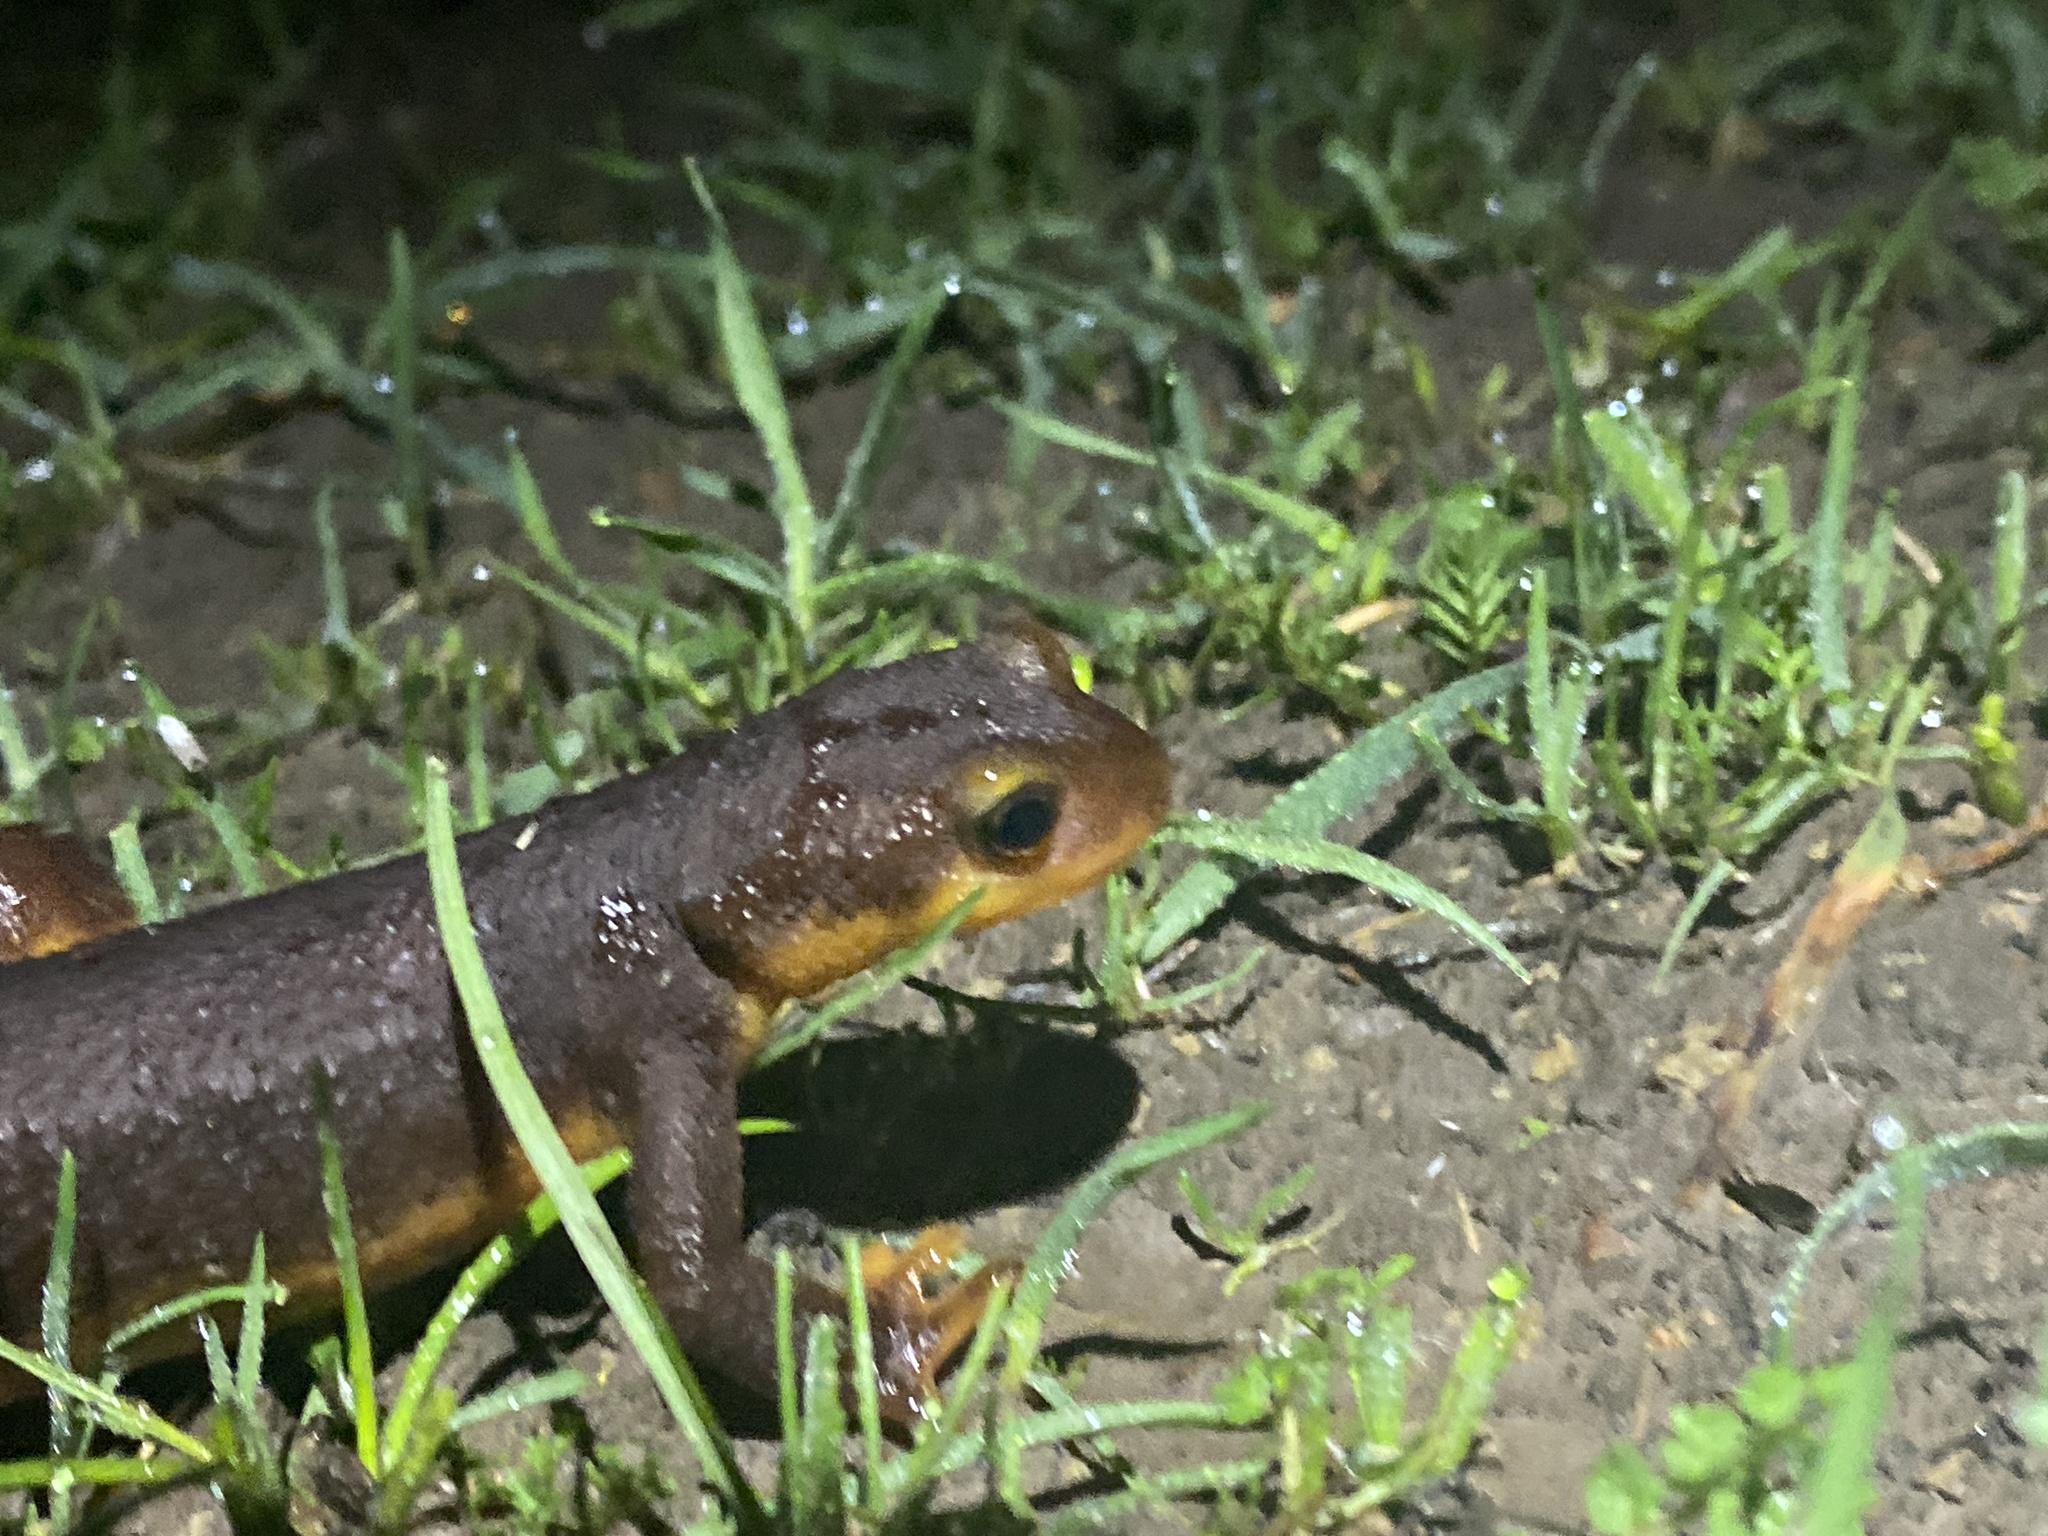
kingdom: Animalia
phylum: Chordata
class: Amphibia
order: Caudata
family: Salamandridae
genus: Taricha
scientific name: Taricha torosa
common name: California newt
